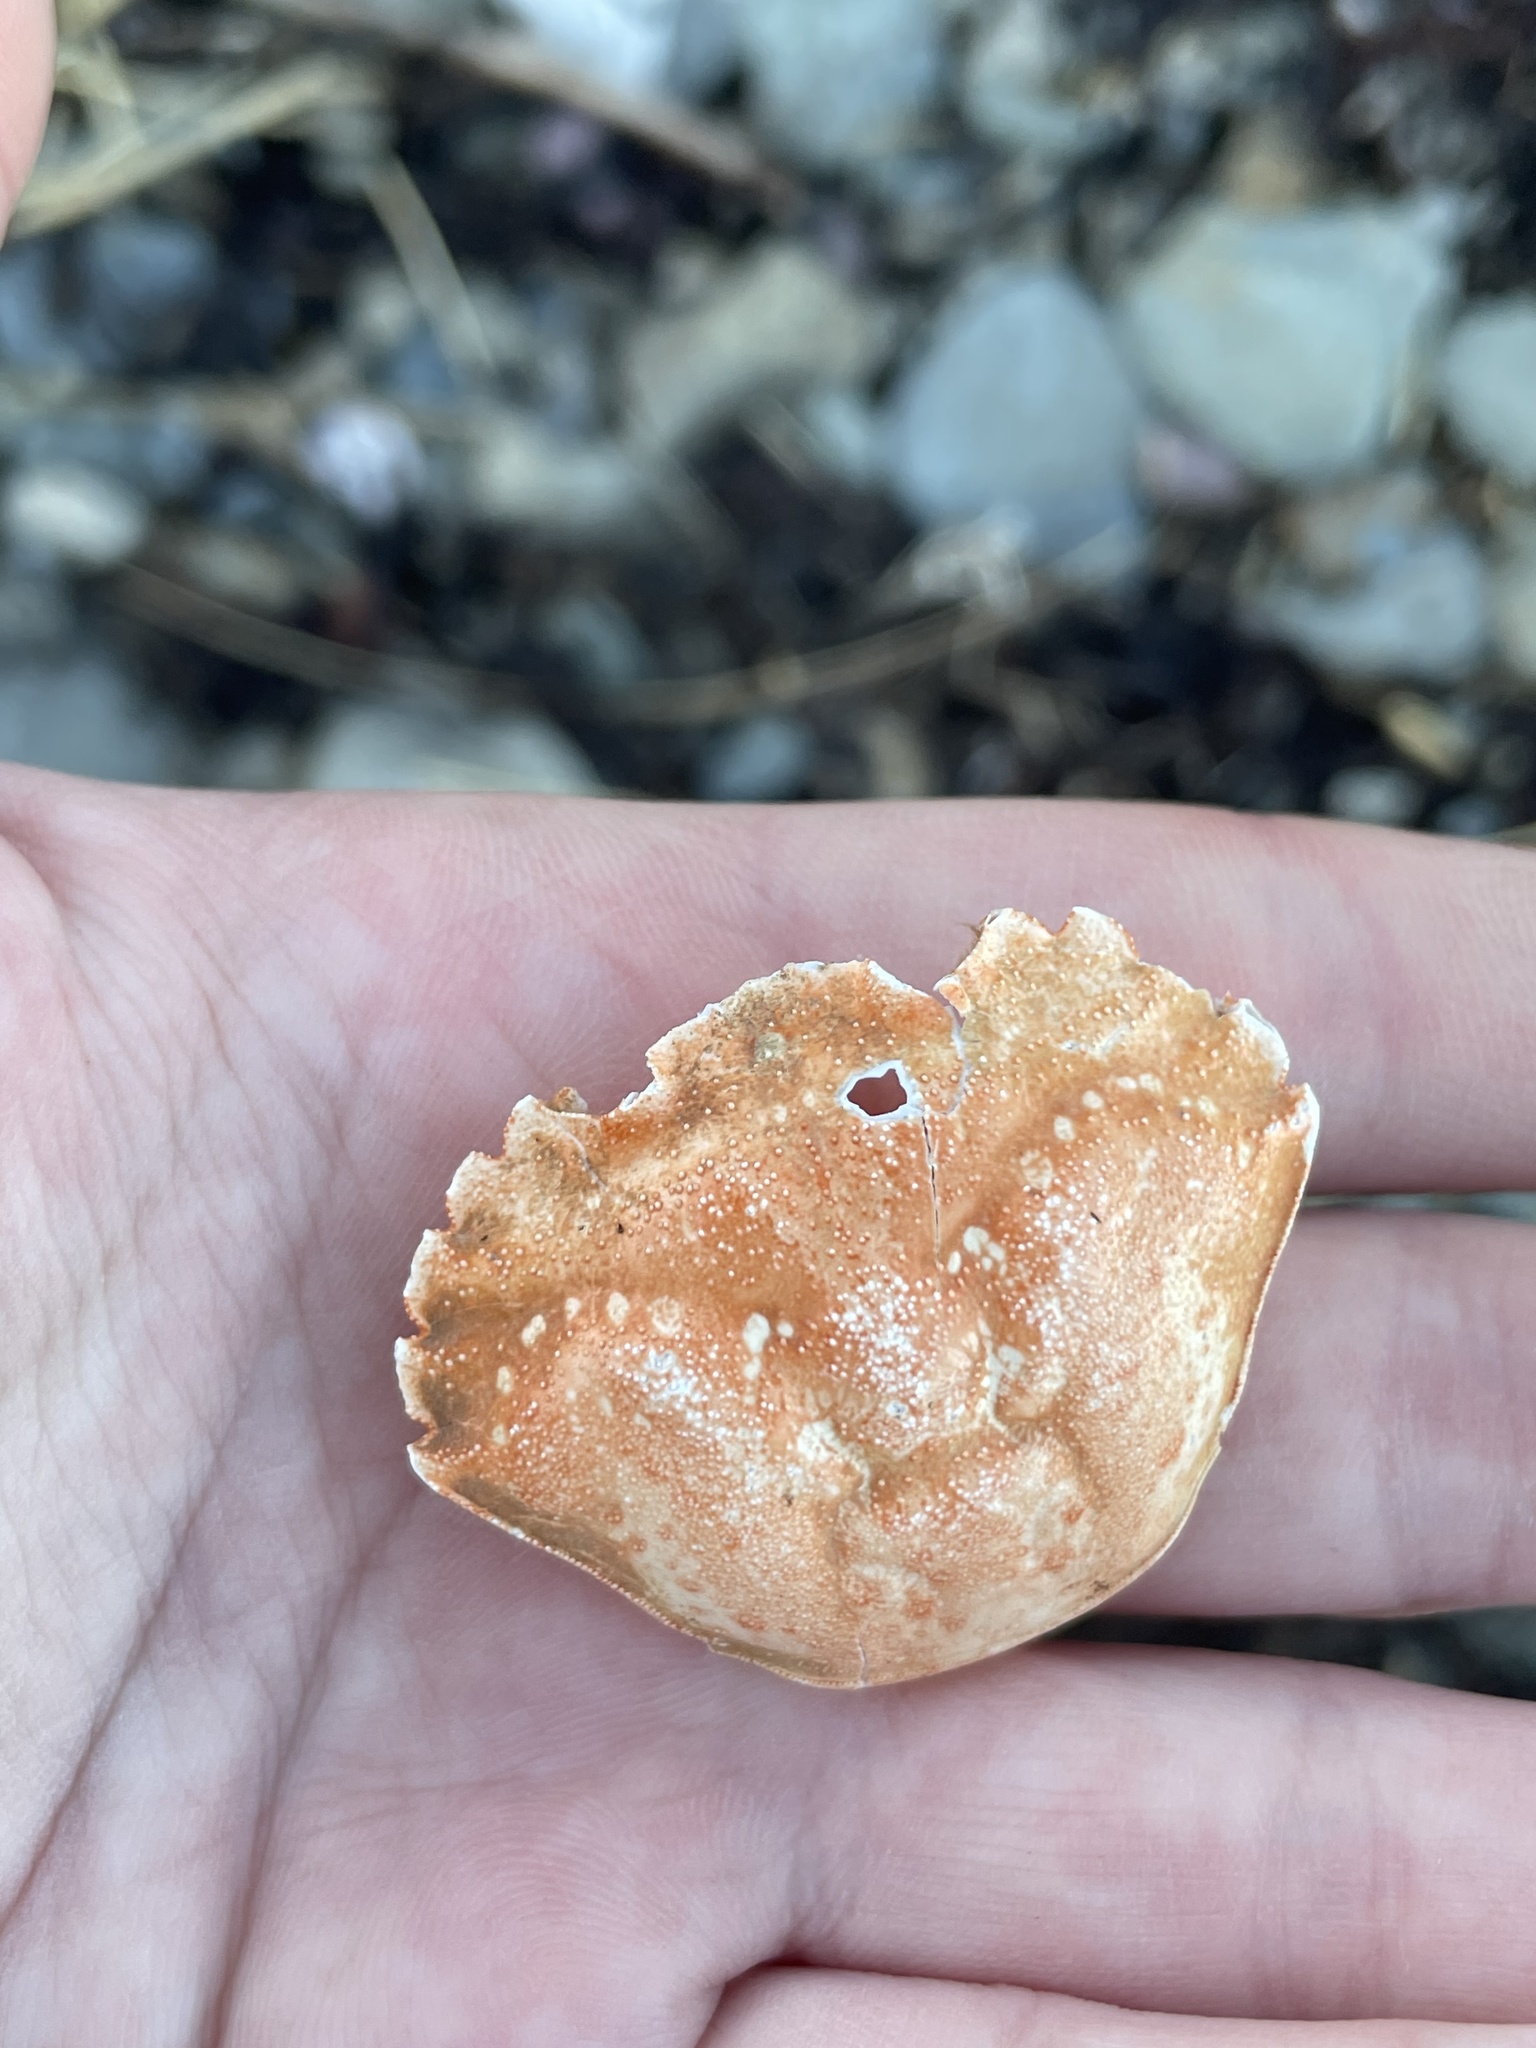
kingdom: Animalia
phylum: Arthropoda
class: Malacostraca
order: Decapoda
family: Carcinidae
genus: Carcinus
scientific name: Carcinus maenas
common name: European green crab
